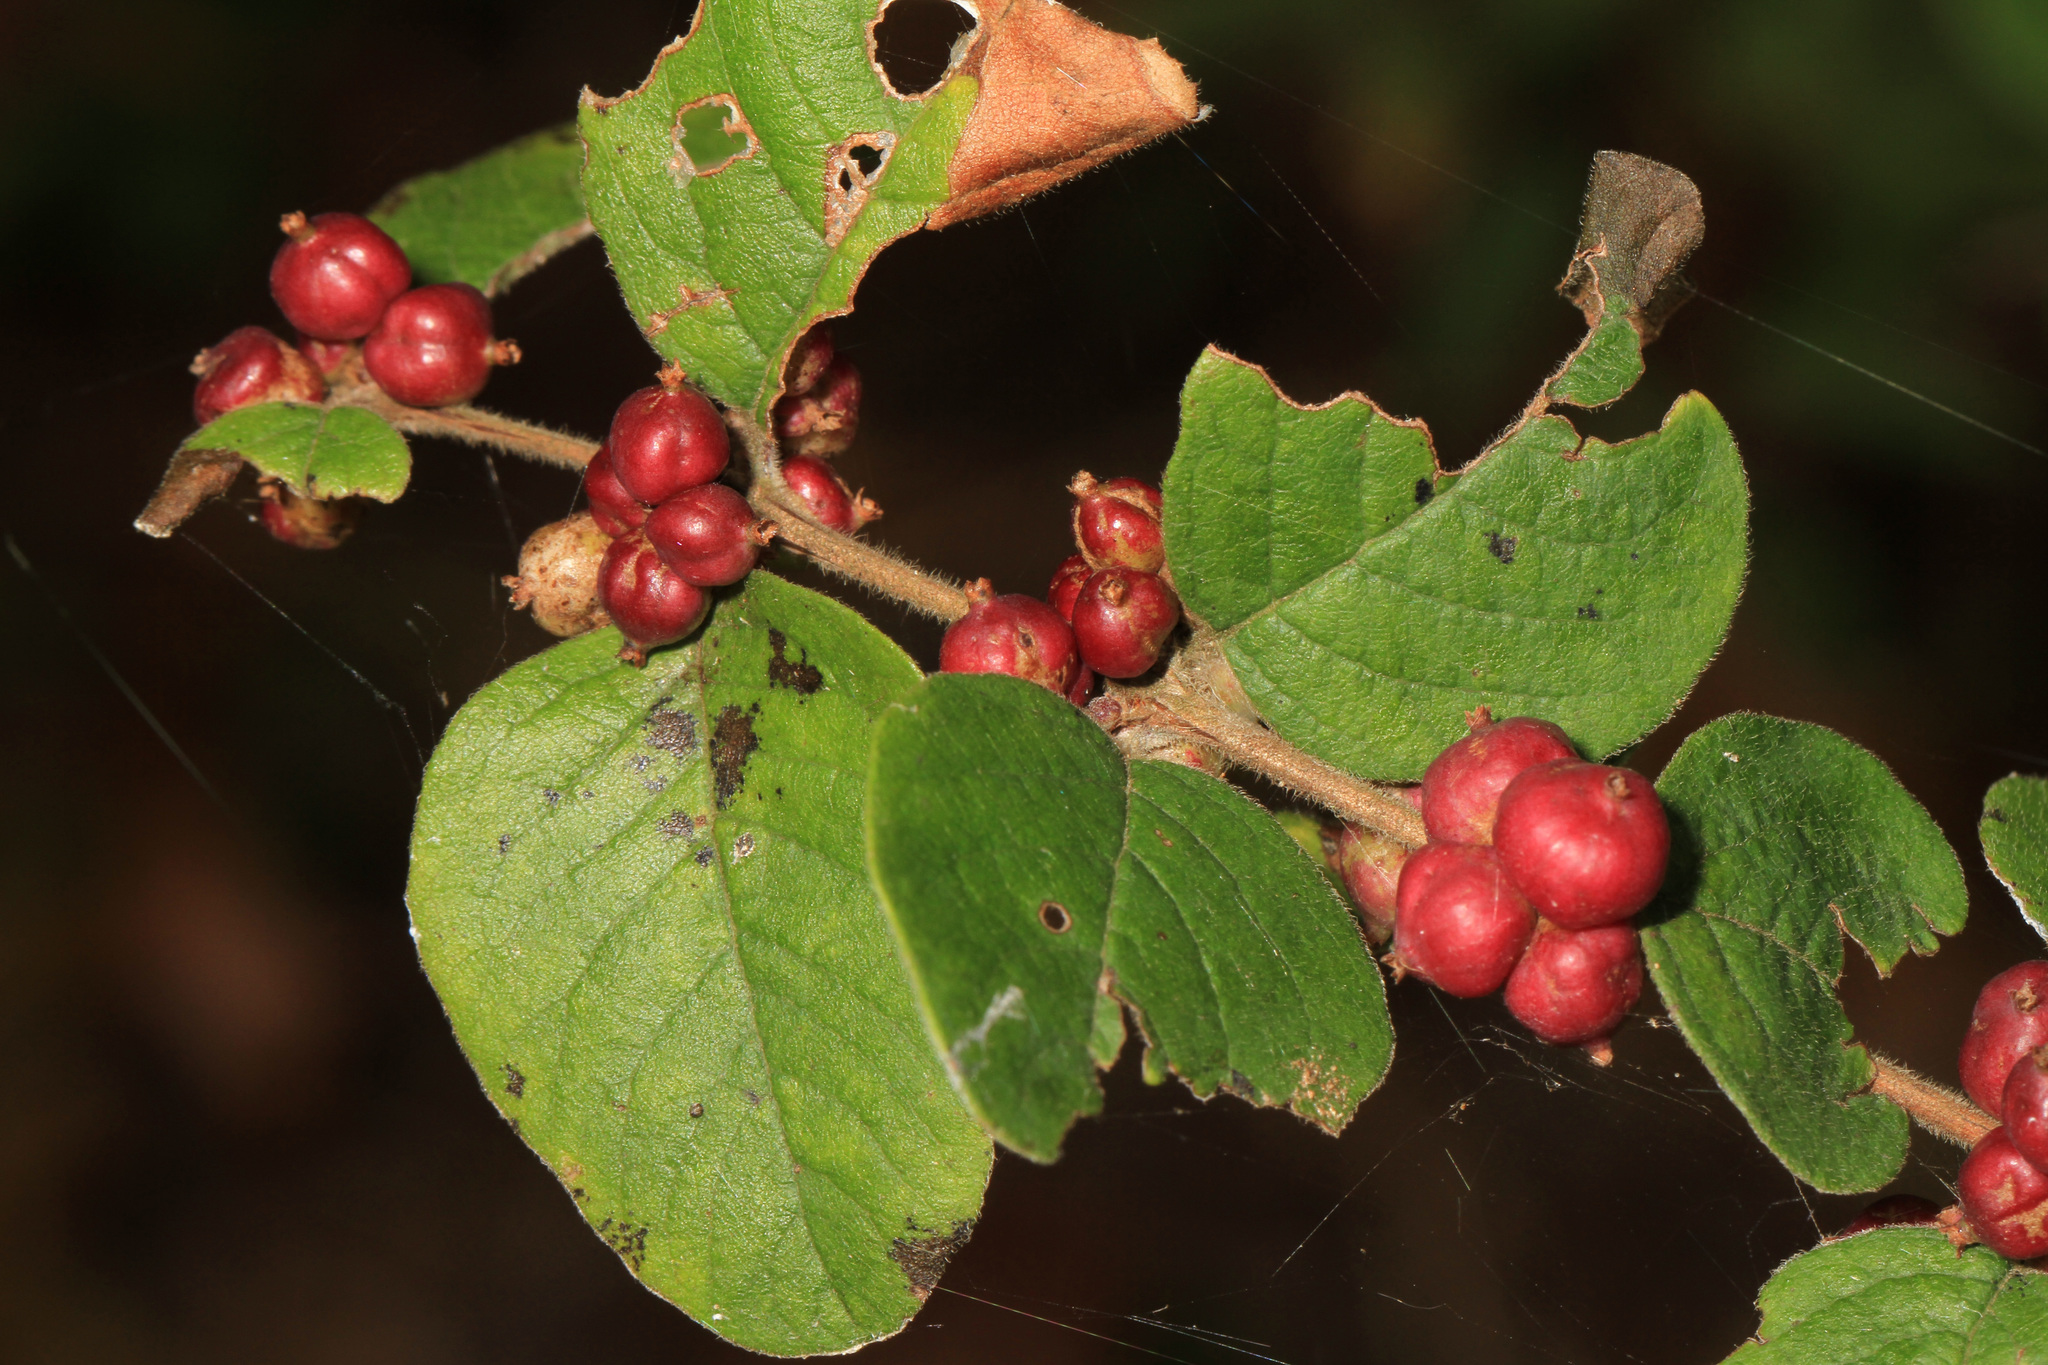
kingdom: Plantae
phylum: Tracheophyta
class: Magnoliopsida
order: Dipsacales
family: Caprifoliaceae
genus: Symphoricarpos
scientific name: Symphoricarpos orbiculatus
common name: Coralberry
